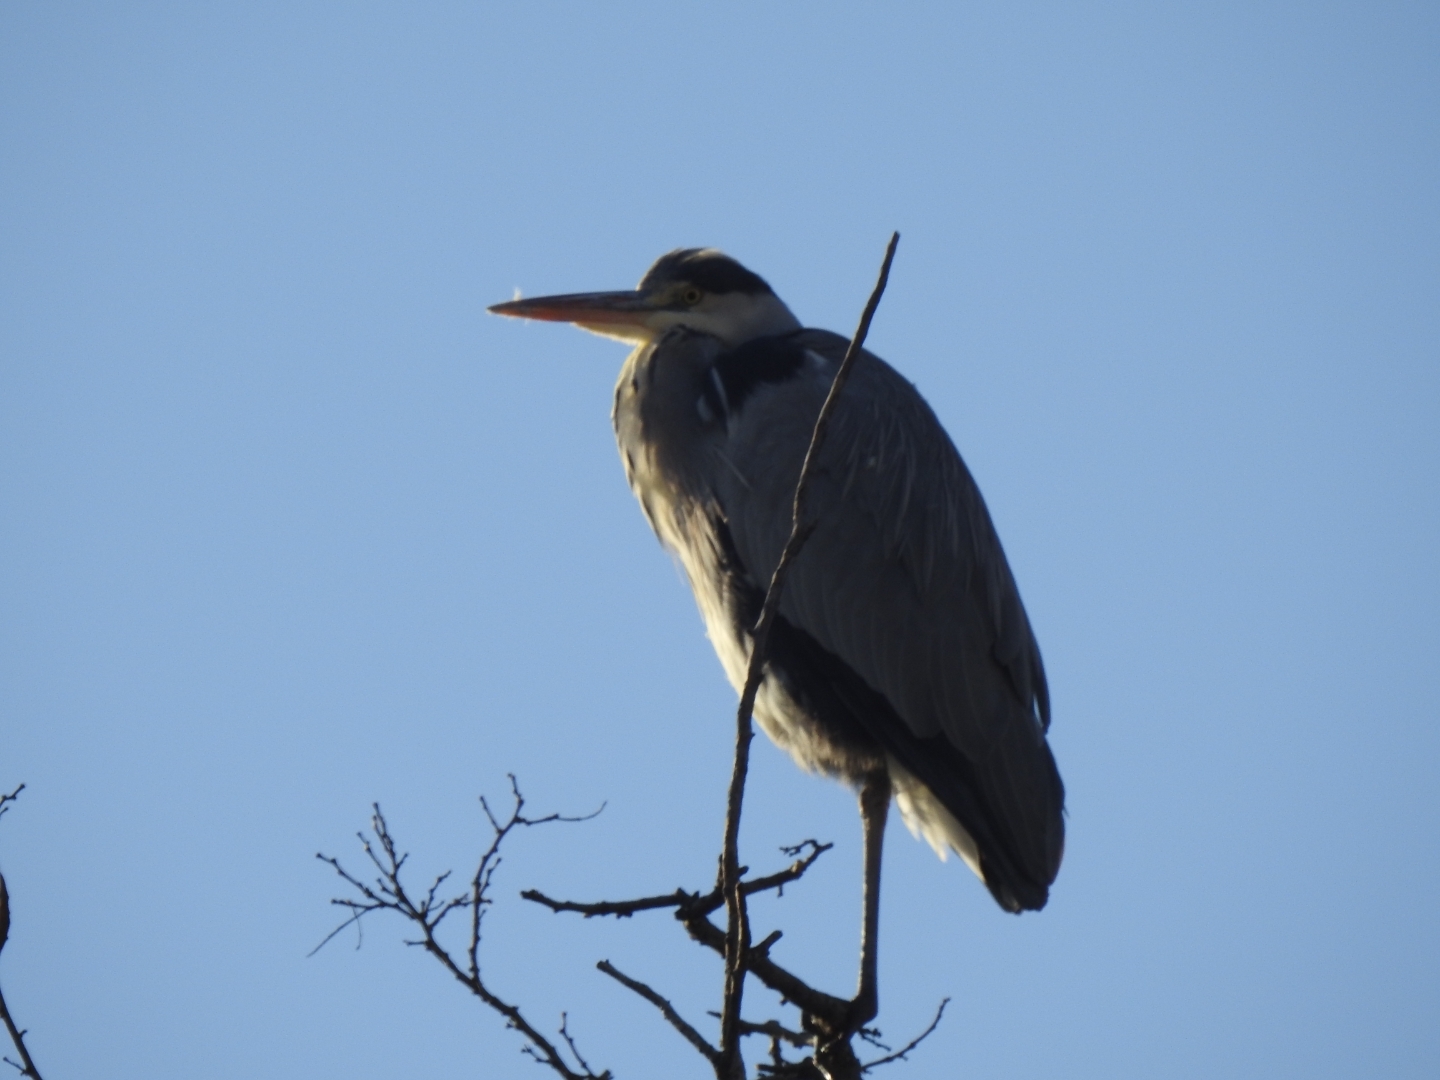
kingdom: Animalia
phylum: Chordata
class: Aves
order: Pelecaniformes
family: Ardeidae
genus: Ardea
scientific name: Ardea cinerea
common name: Grey heron
